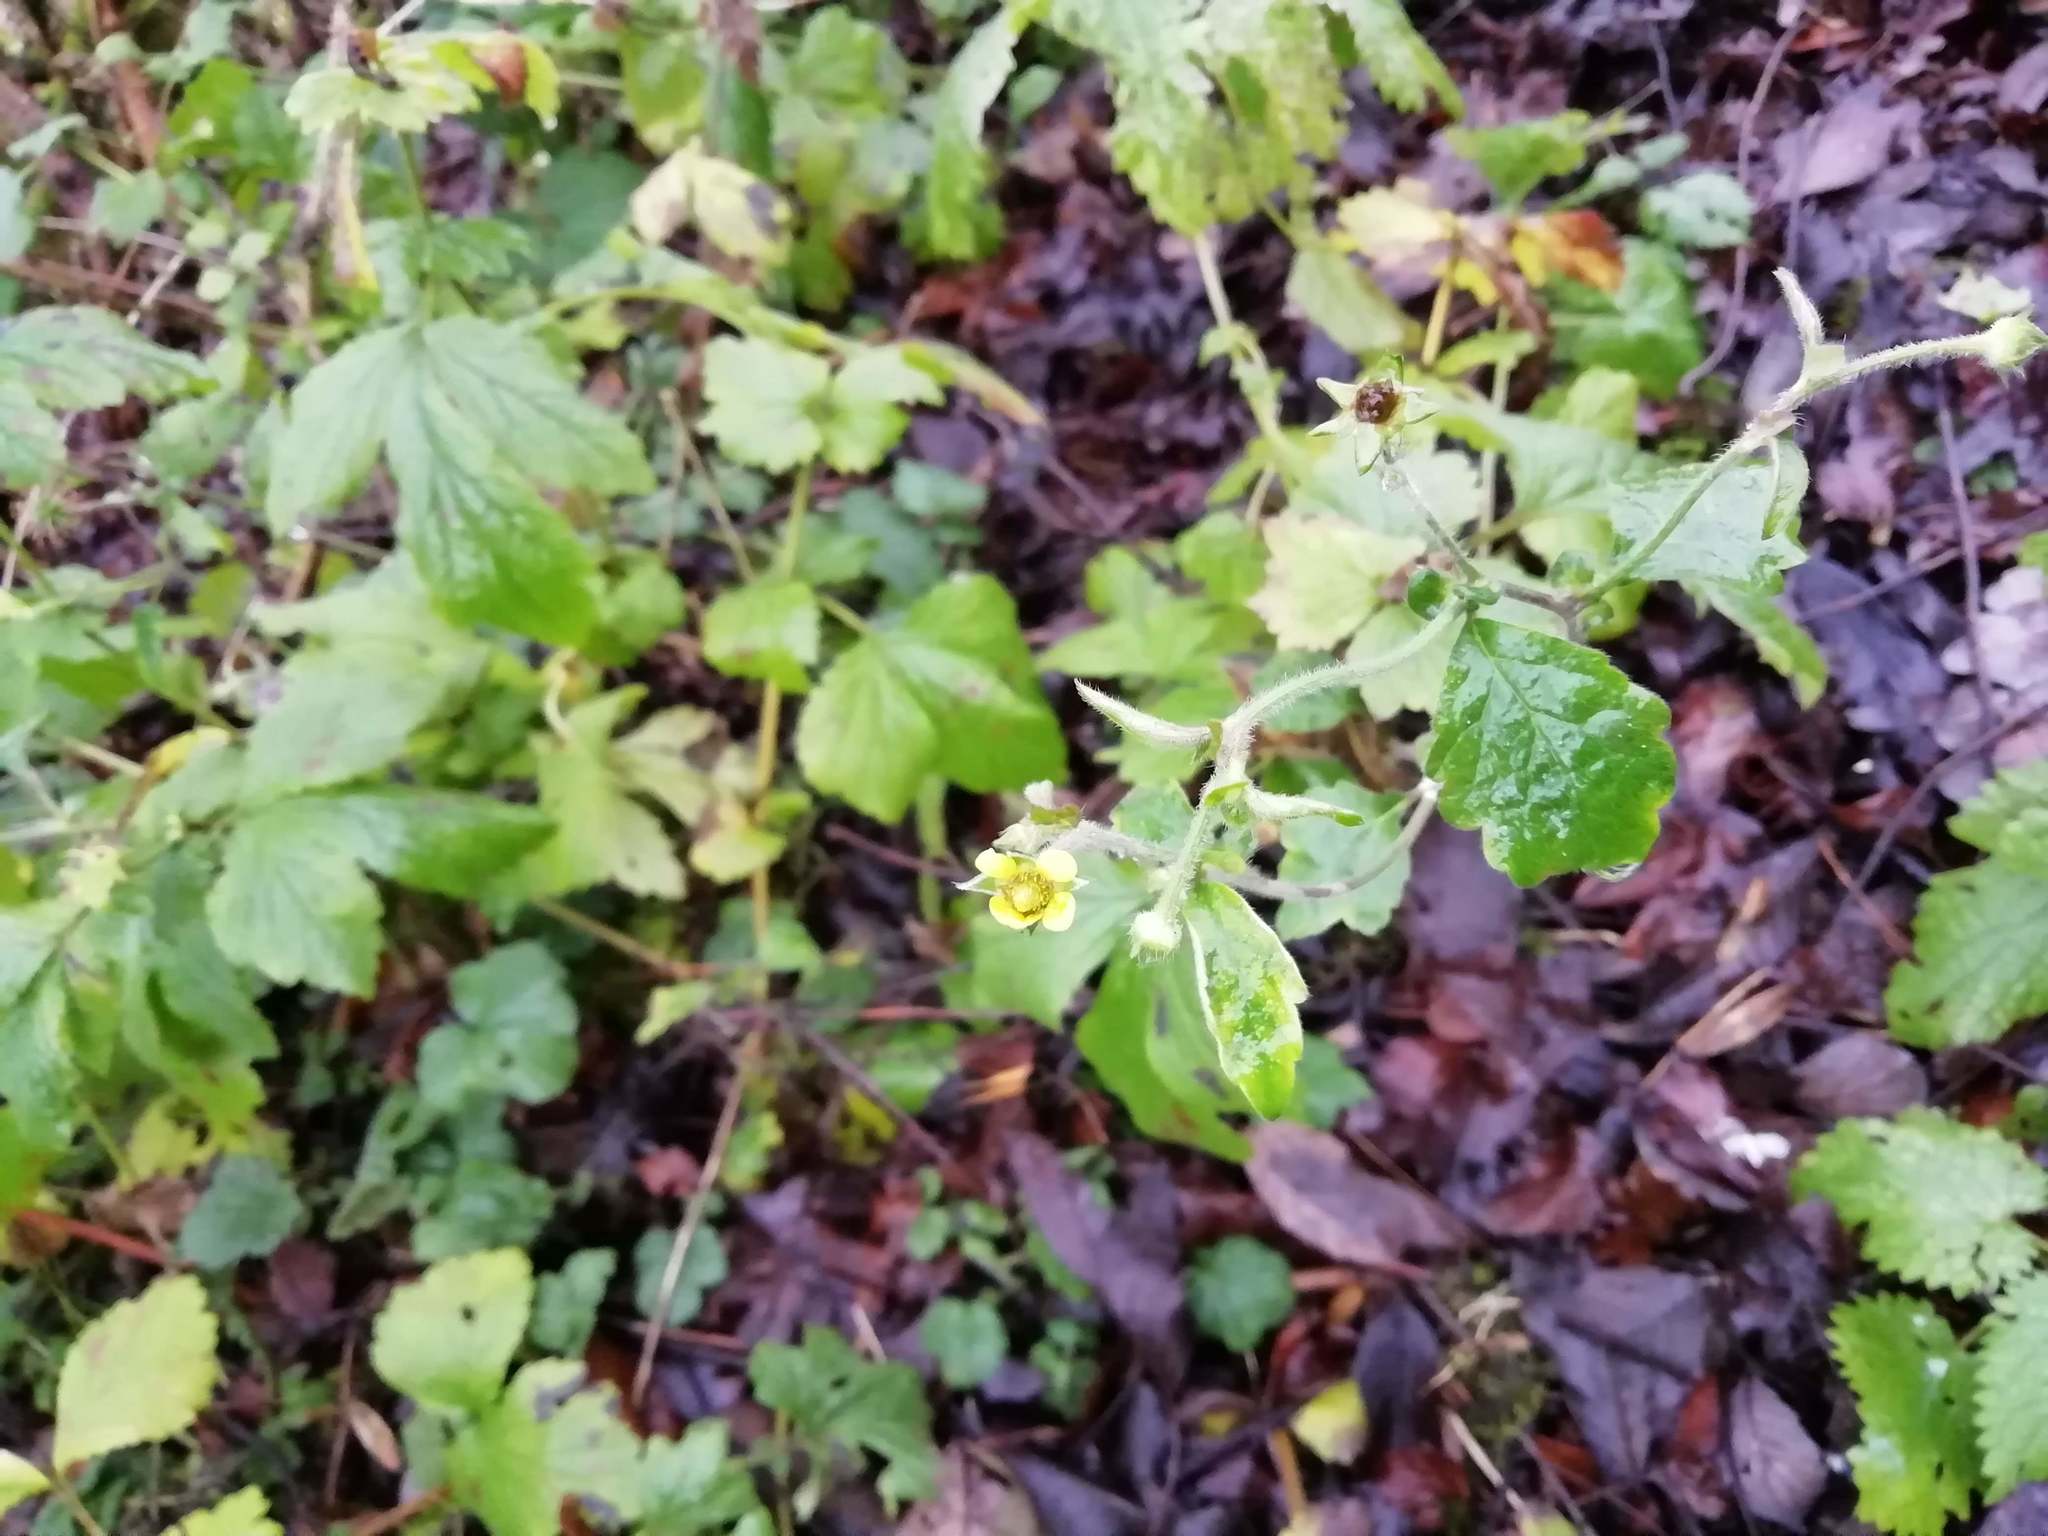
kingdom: Plantae
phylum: Tracheophyta
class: Magnoliopsida
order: Rosales
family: Rosaceae
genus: Geum
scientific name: Geum urbanum
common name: Wood avens
